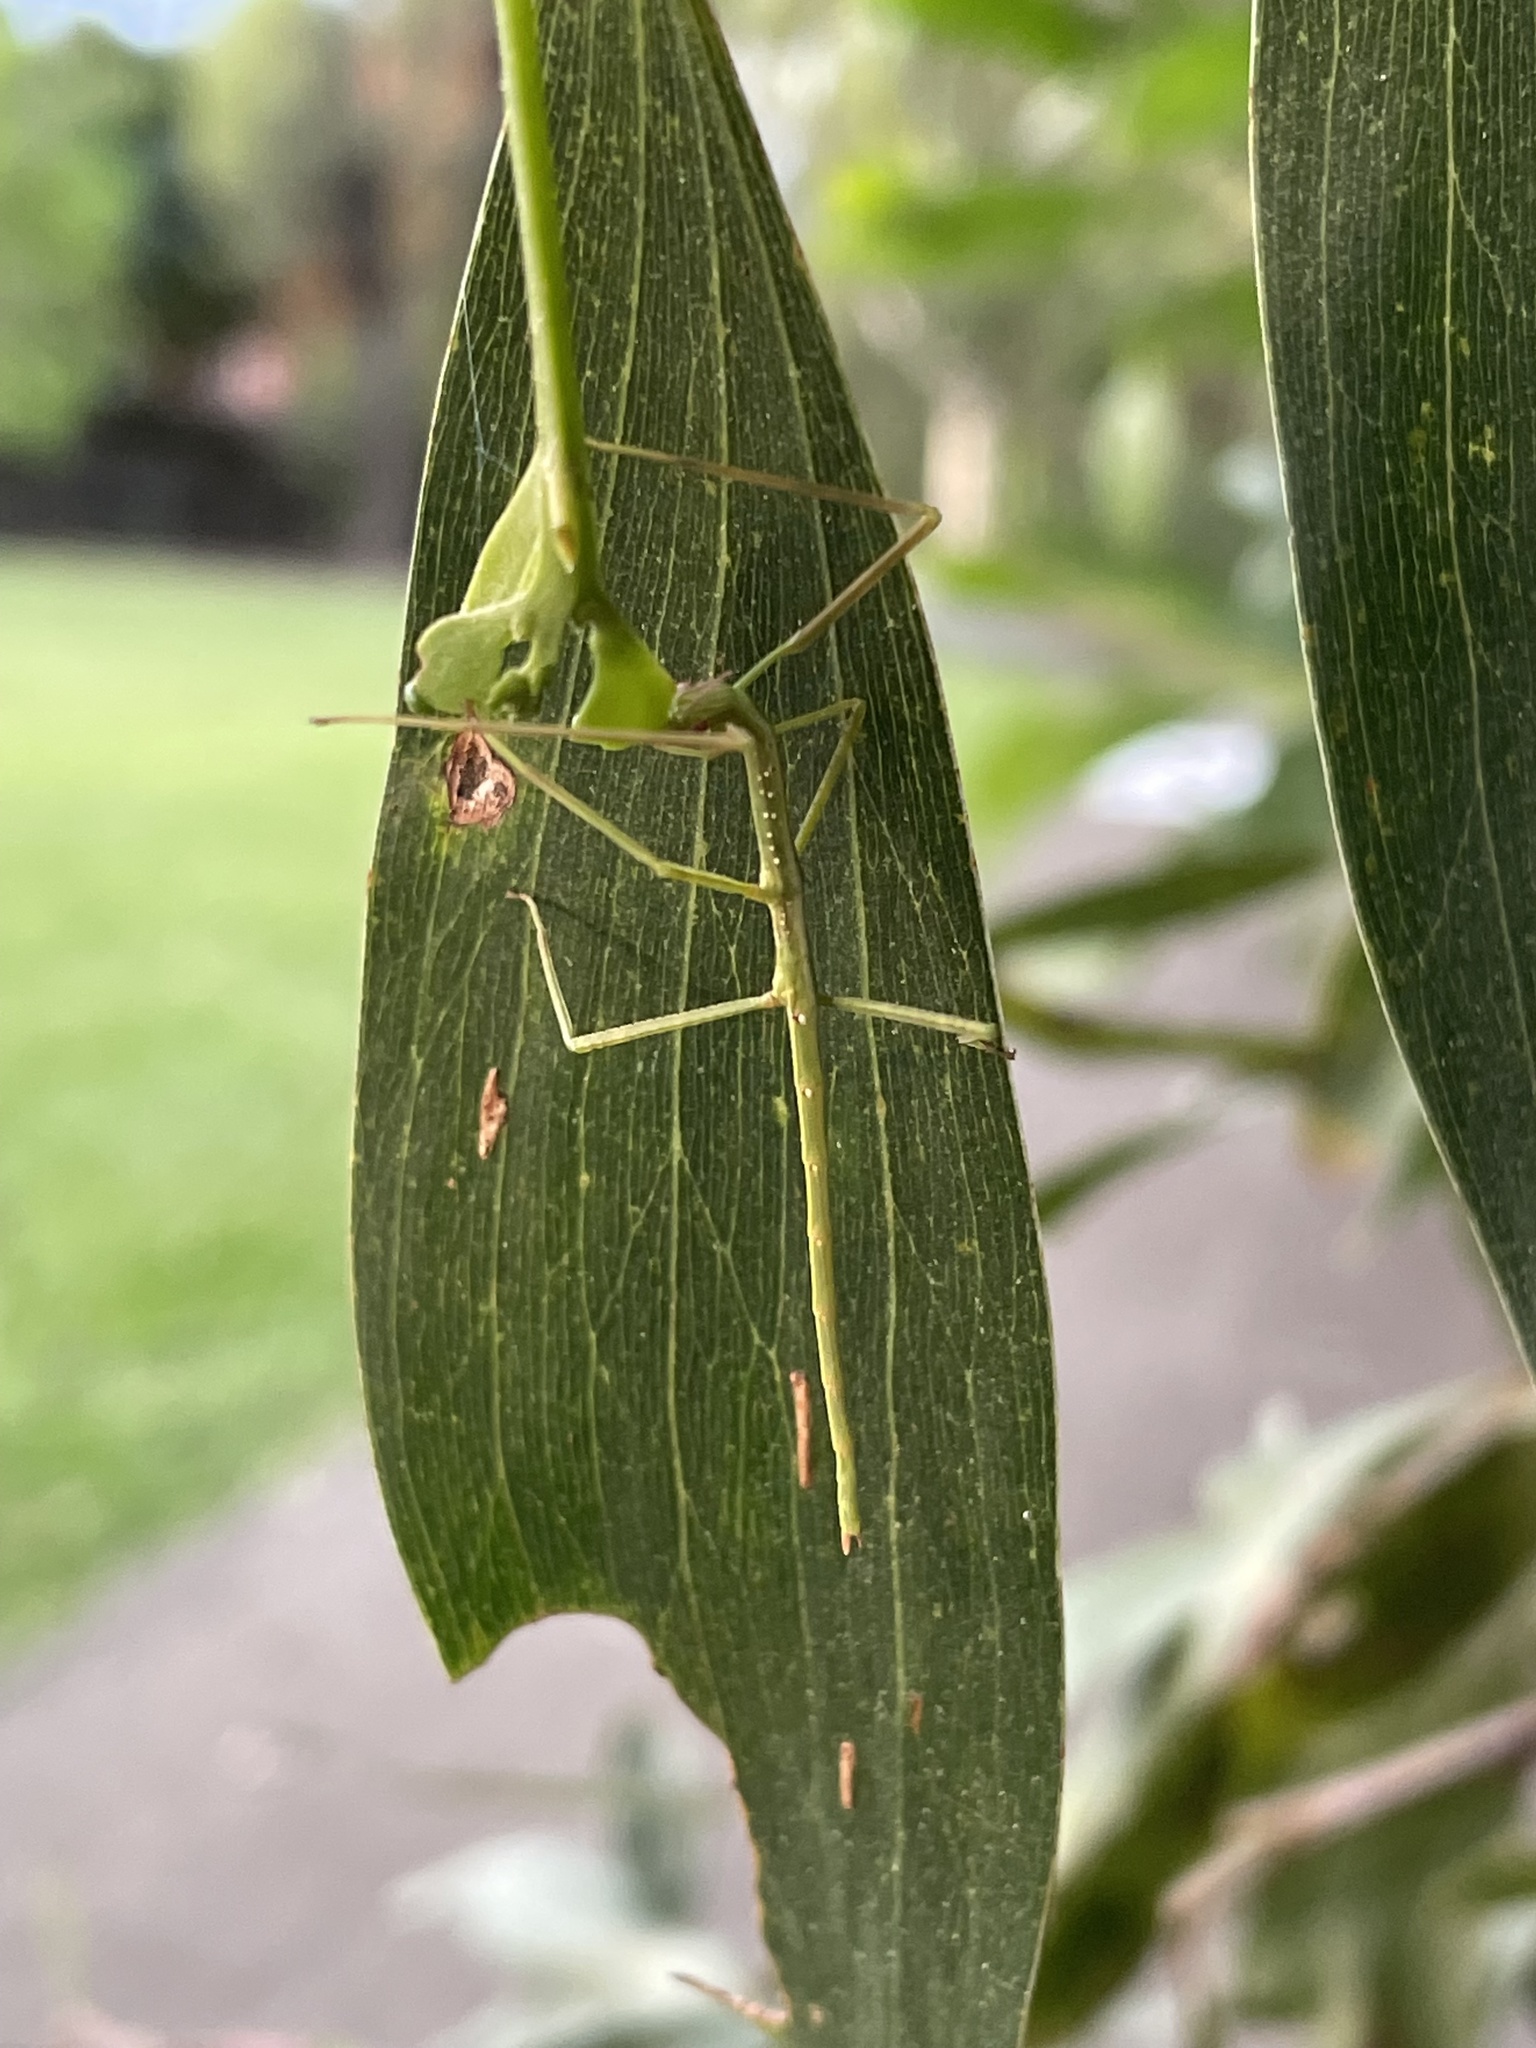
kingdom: Animalia
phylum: Arthropoda
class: Insecta
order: Phasmida
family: Phasmatidae
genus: Anchiale
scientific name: Anchiale austrotessulata
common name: Tessellated stick-insect
